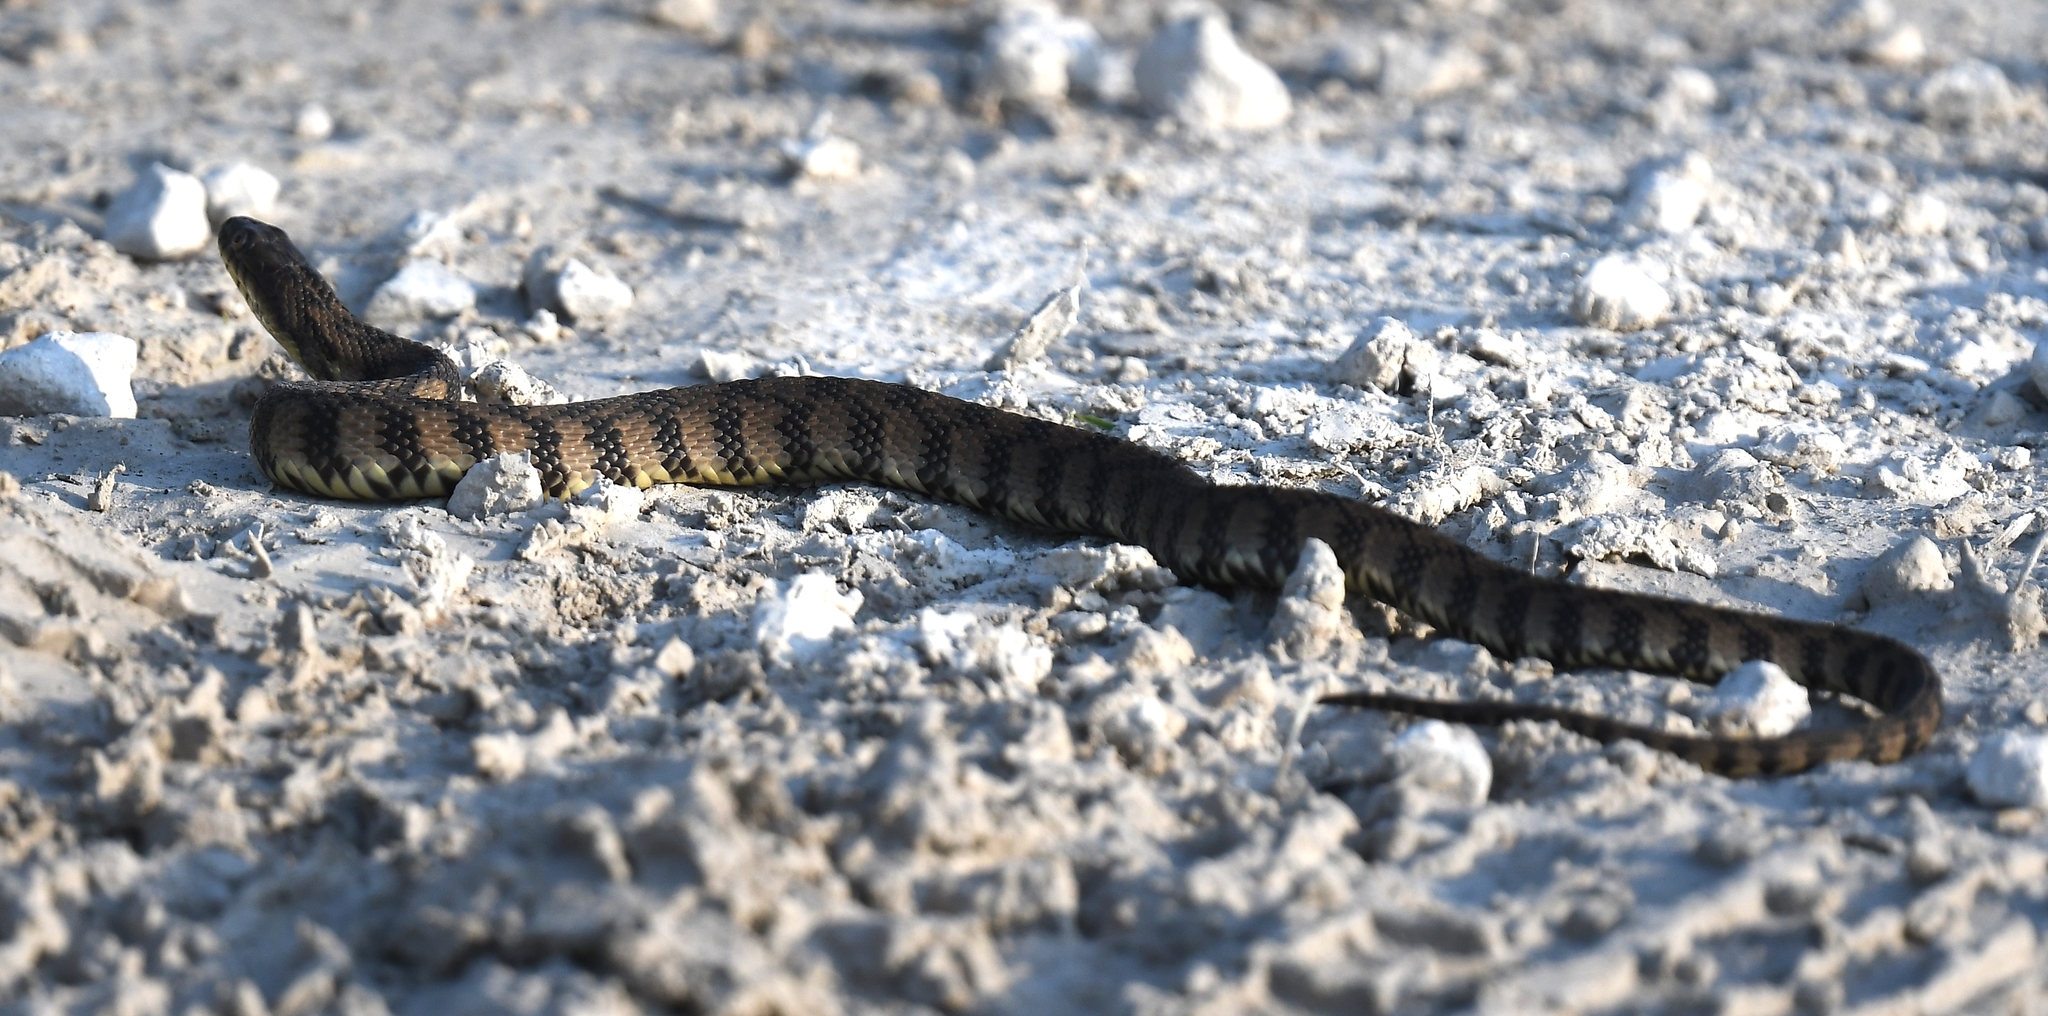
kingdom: Animalia
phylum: Chordata
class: Squamata
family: Colubridae
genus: Nerodia
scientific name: Nerodia rhombifer
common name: Diamondback water snake
